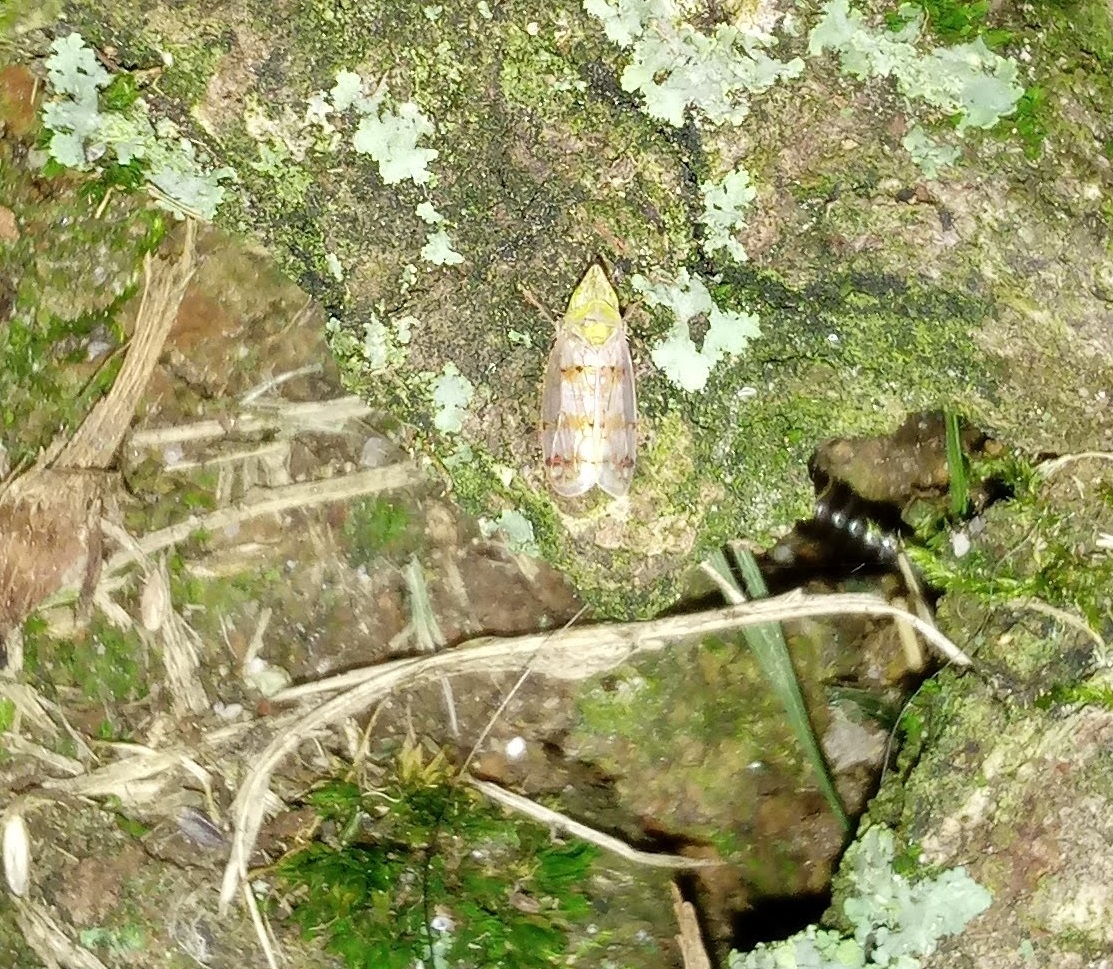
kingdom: Animalia
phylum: Arthropoda
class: Insecta
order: Hemiptera
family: Cicadellidae
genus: Japananus
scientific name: Japananus hyalinus
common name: The japanese maple leafhopper
